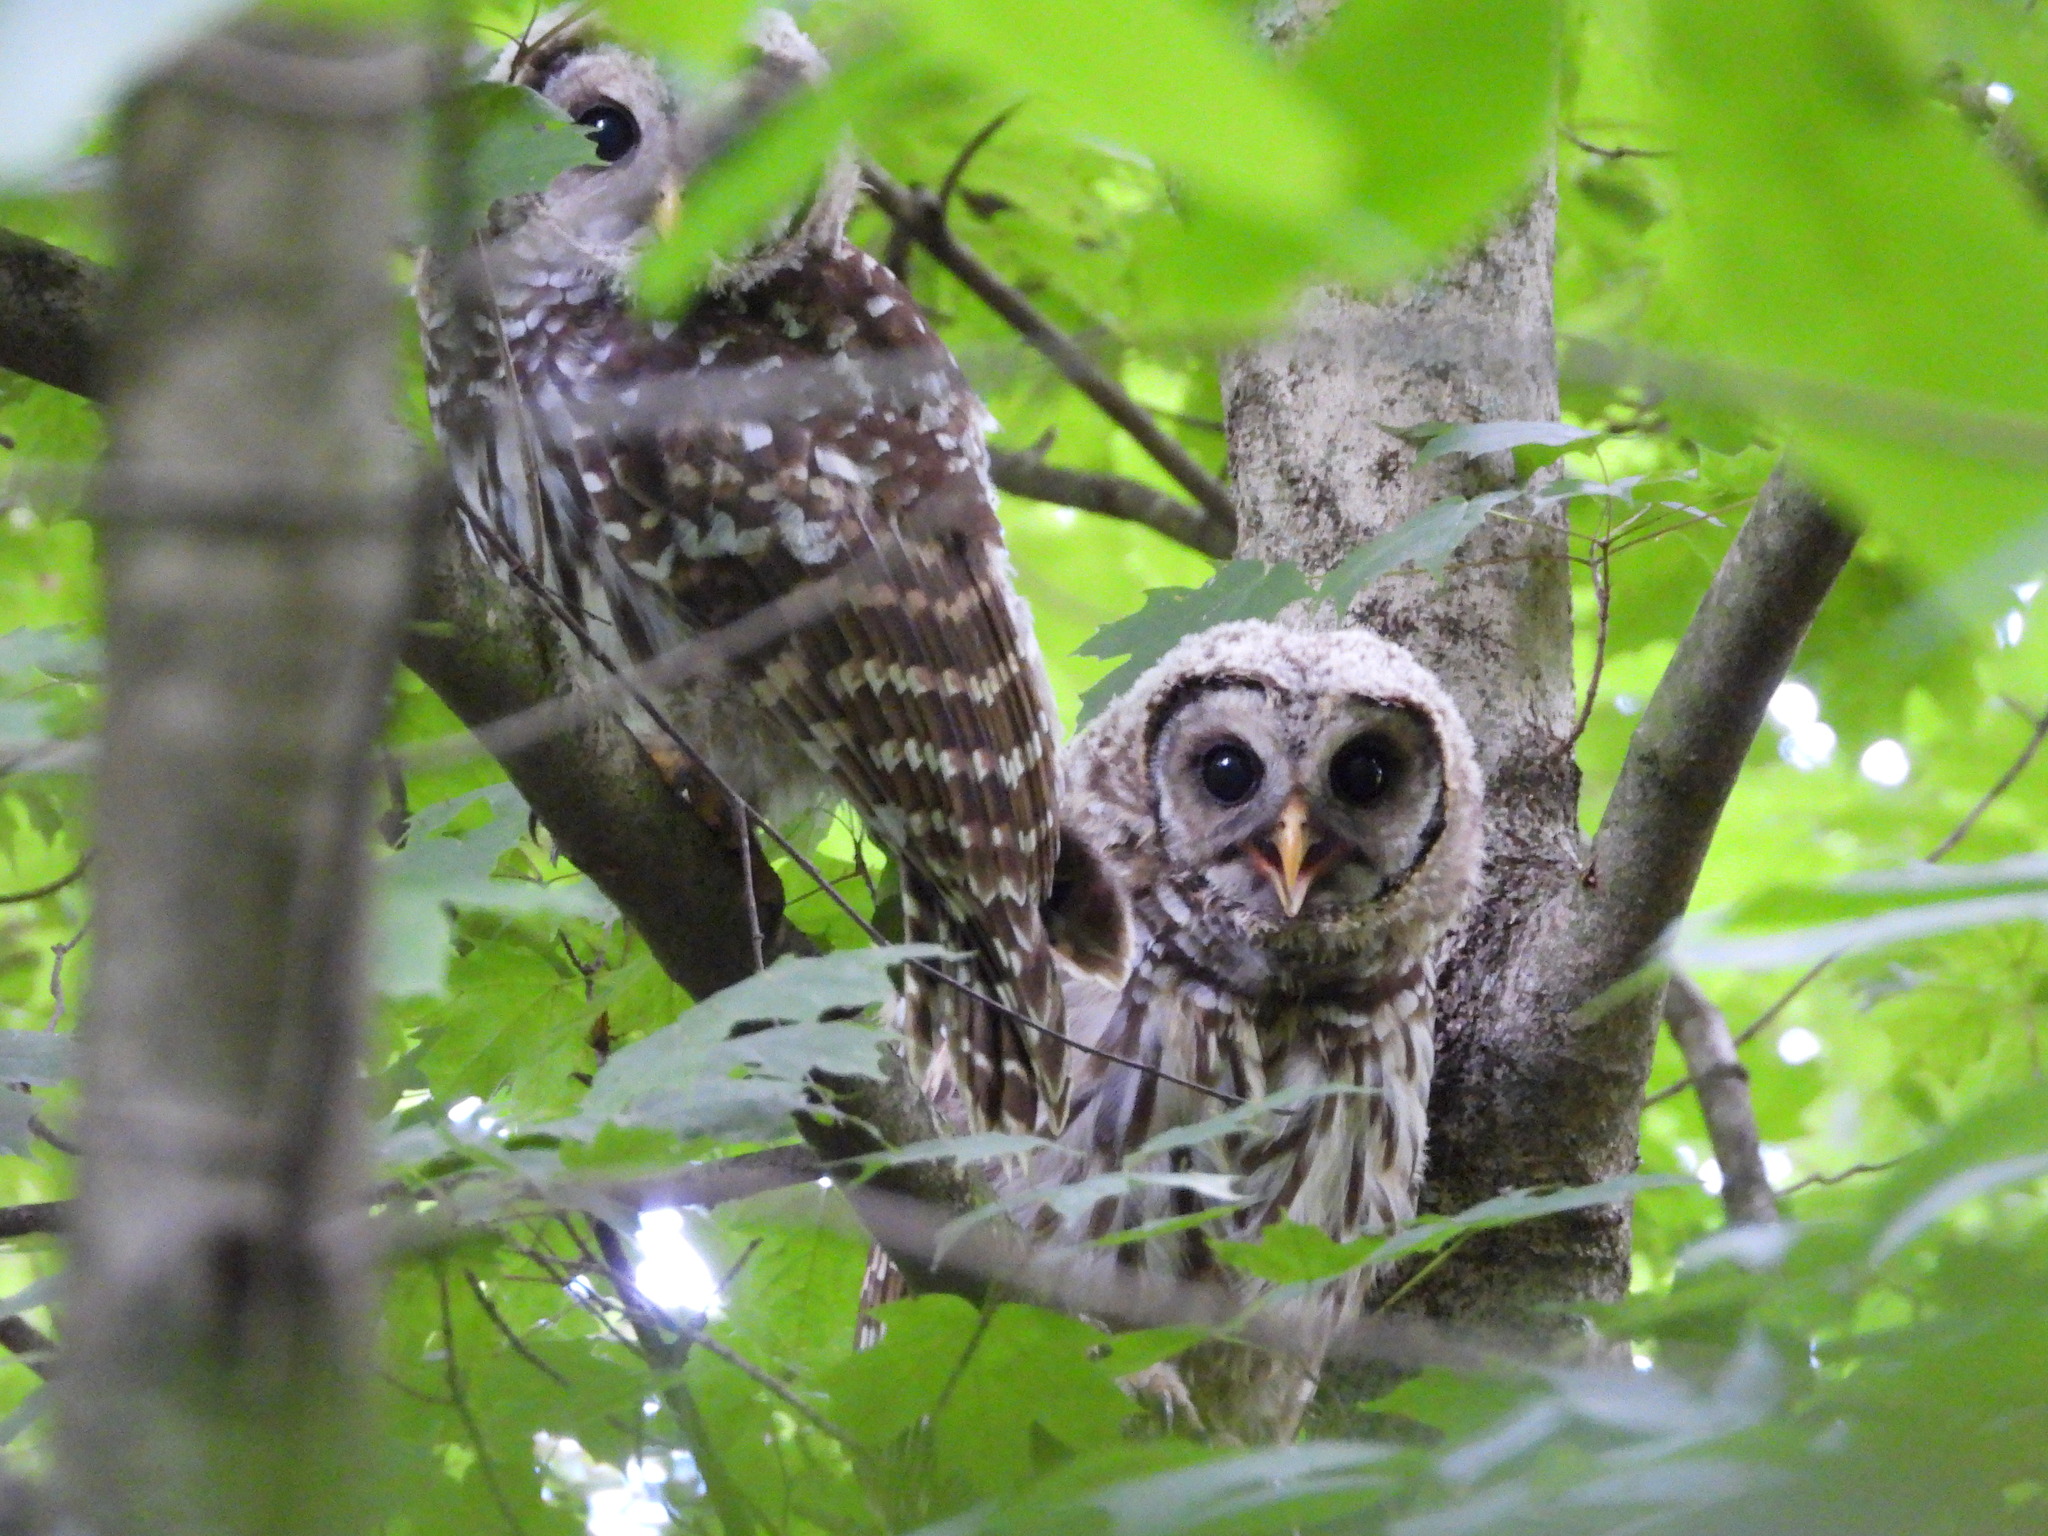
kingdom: Animalia
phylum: Chordata
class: Aves
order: Strigiformes
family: Strigidae
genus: Strix
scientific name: Strix varia
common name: Barred owl
